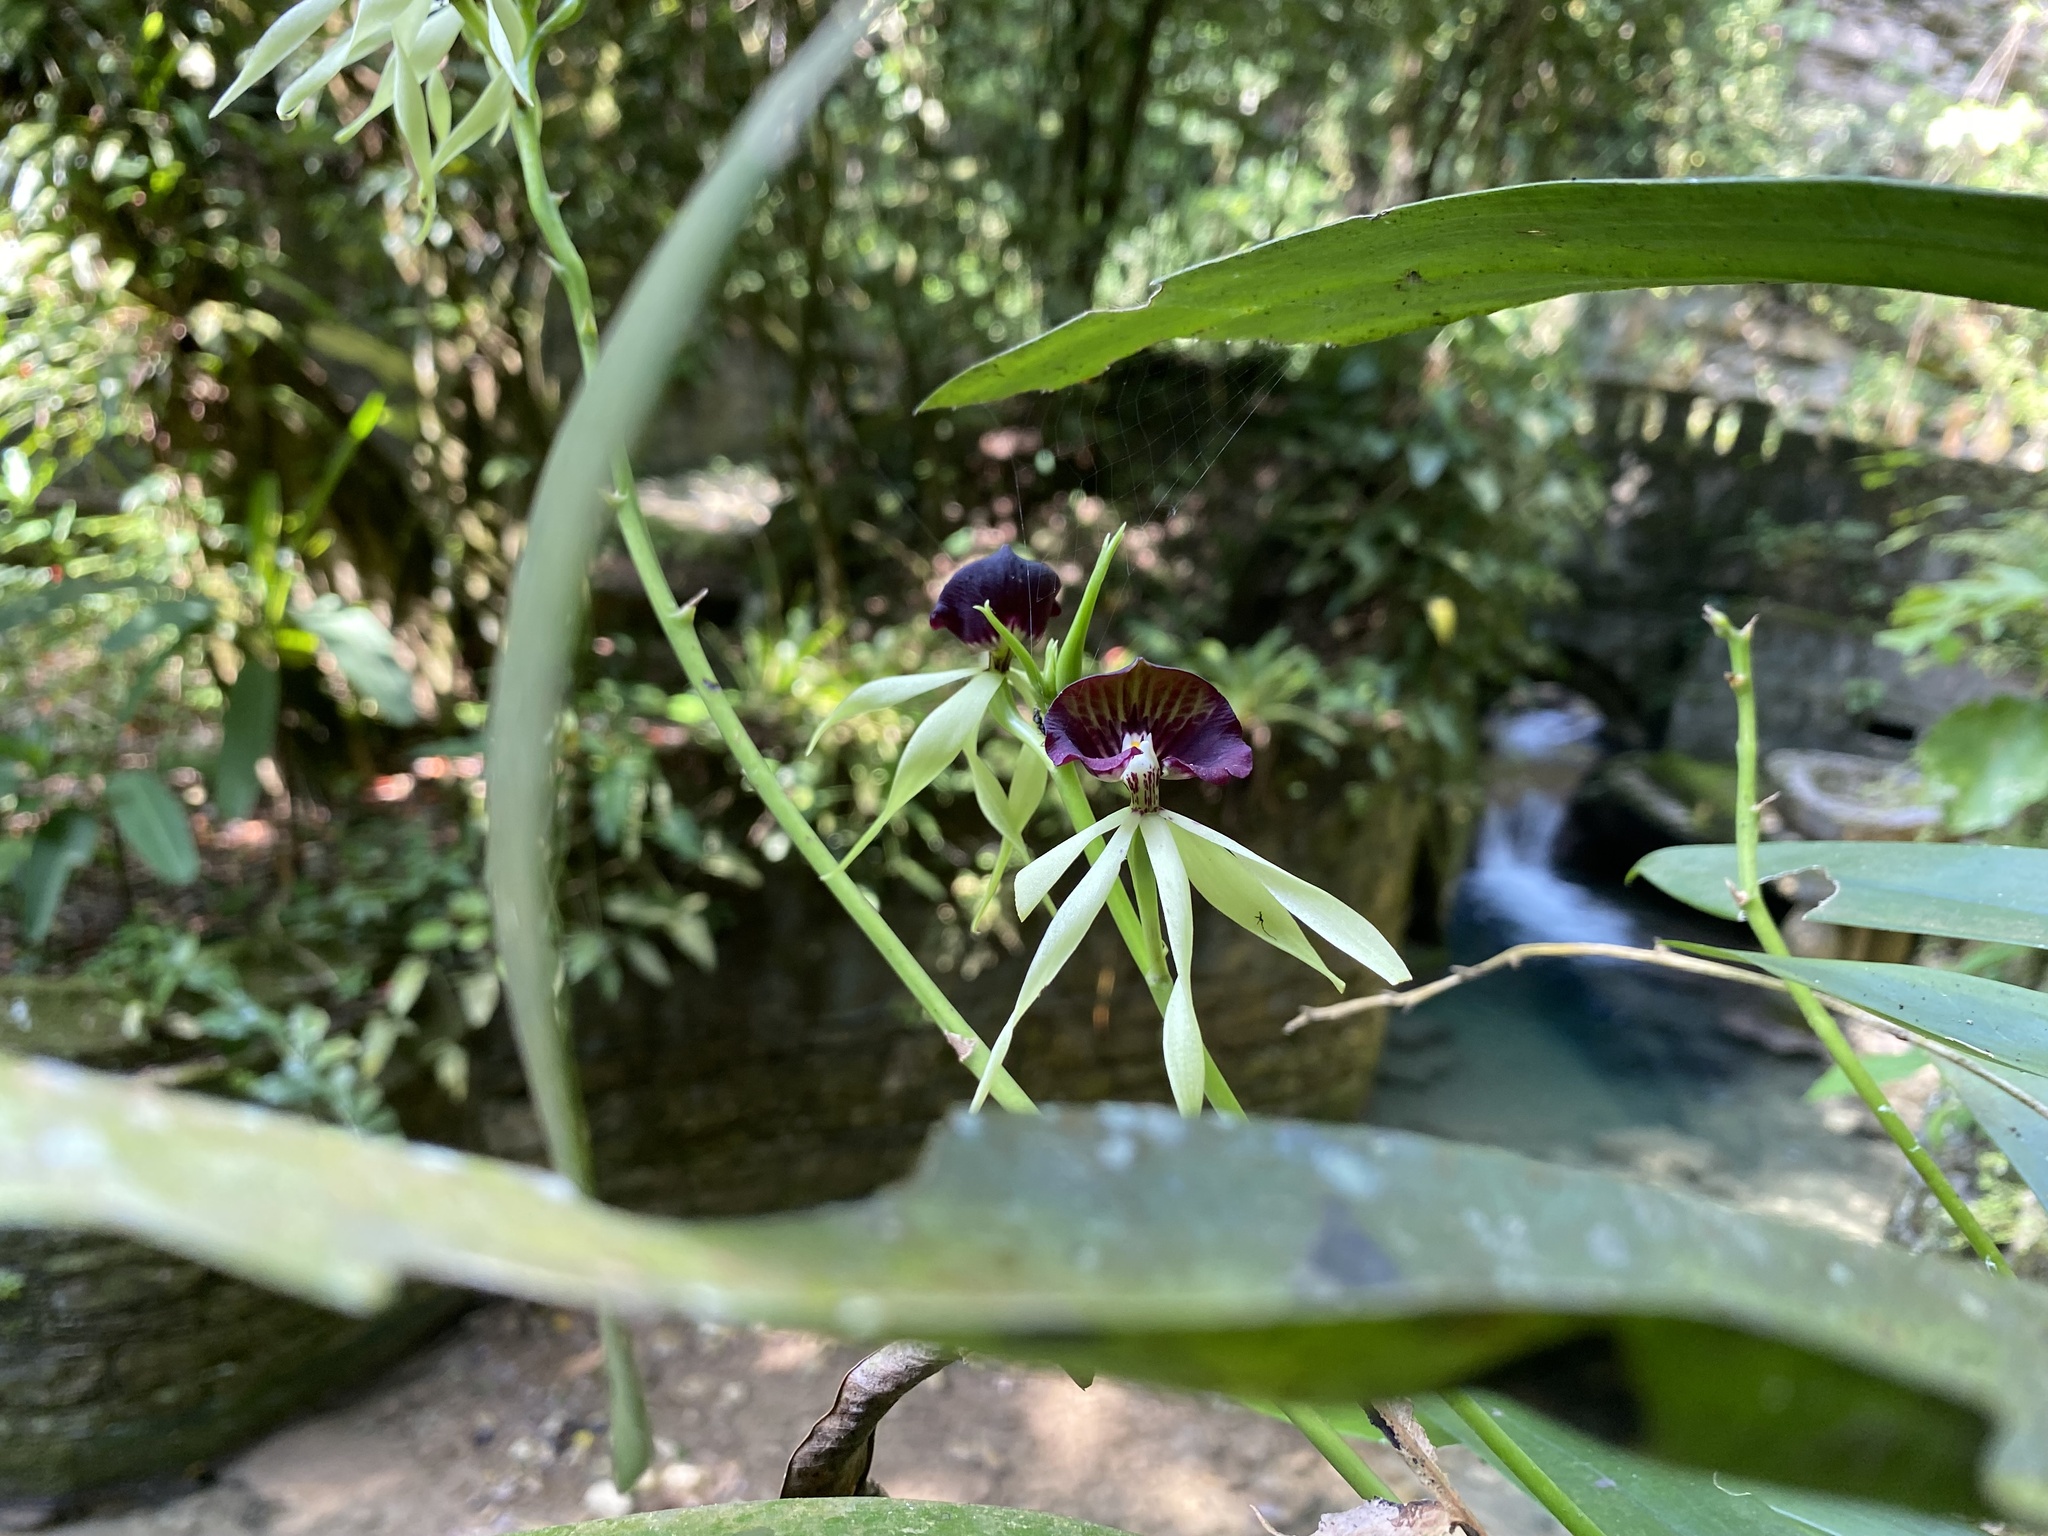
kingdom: Plantae
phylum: Tracheophyta
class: Liliopsida
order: Asparagales
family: Orchidaceae
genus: Prosthechea
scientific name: Prosthechea cochleata
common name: Clamshell orchid
